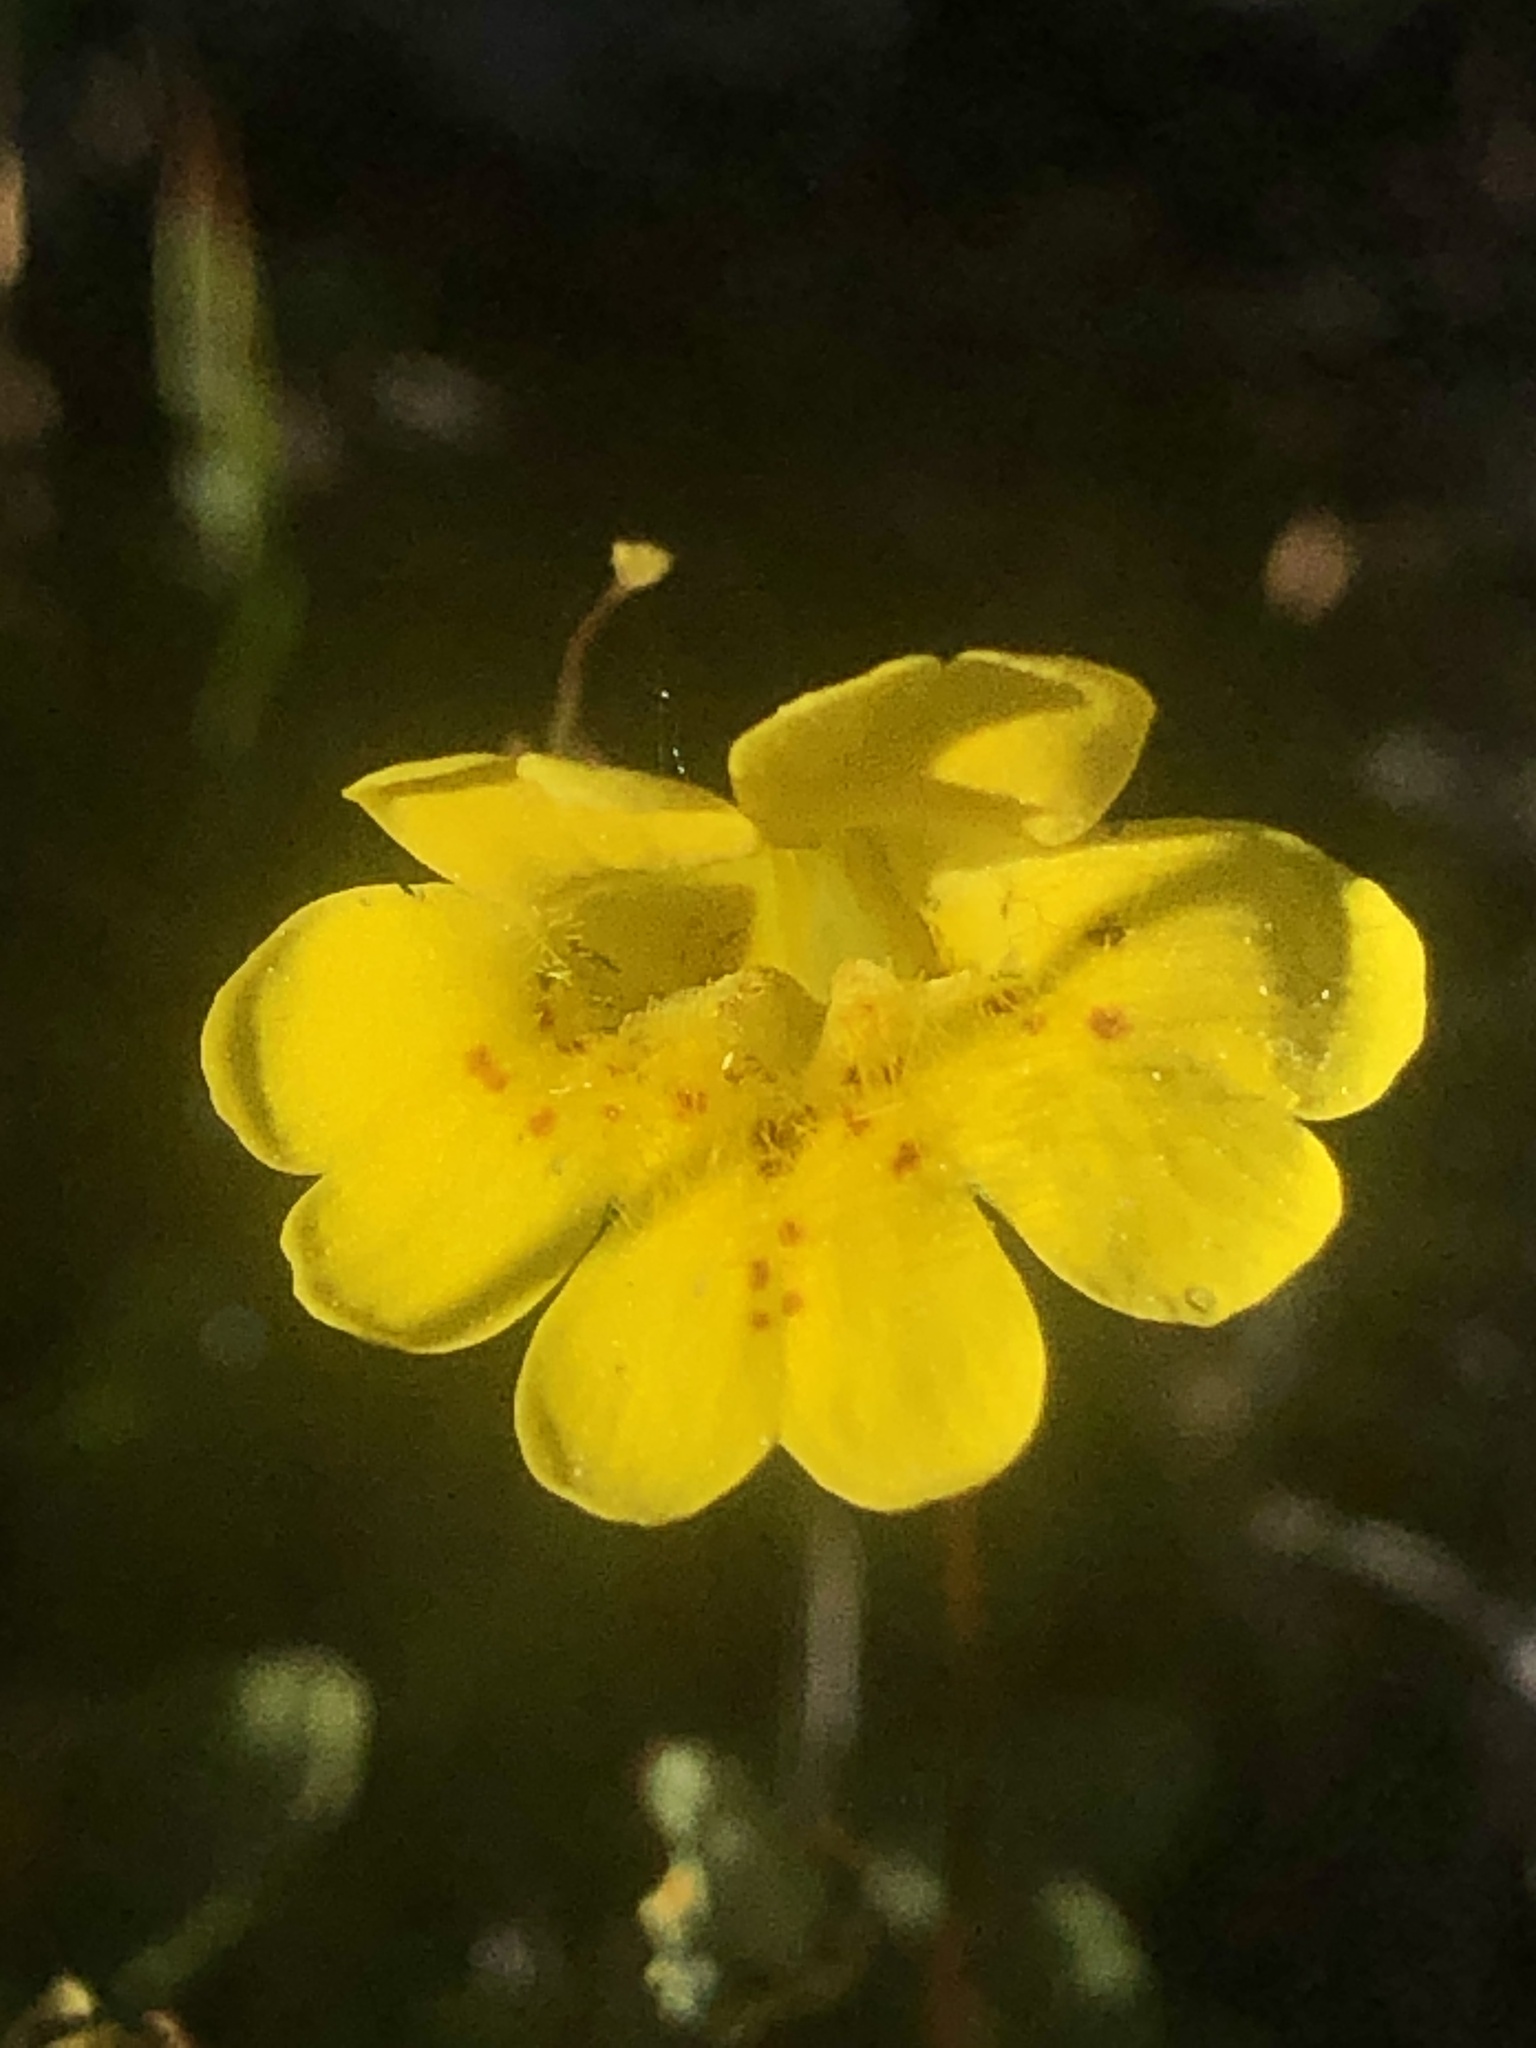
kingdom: Plantae
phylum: Tracheophyta
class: Magnoliopsida
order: Lamiales
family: Phrymaceae
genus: Erythranthe
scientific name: Erythranthe primuloides
